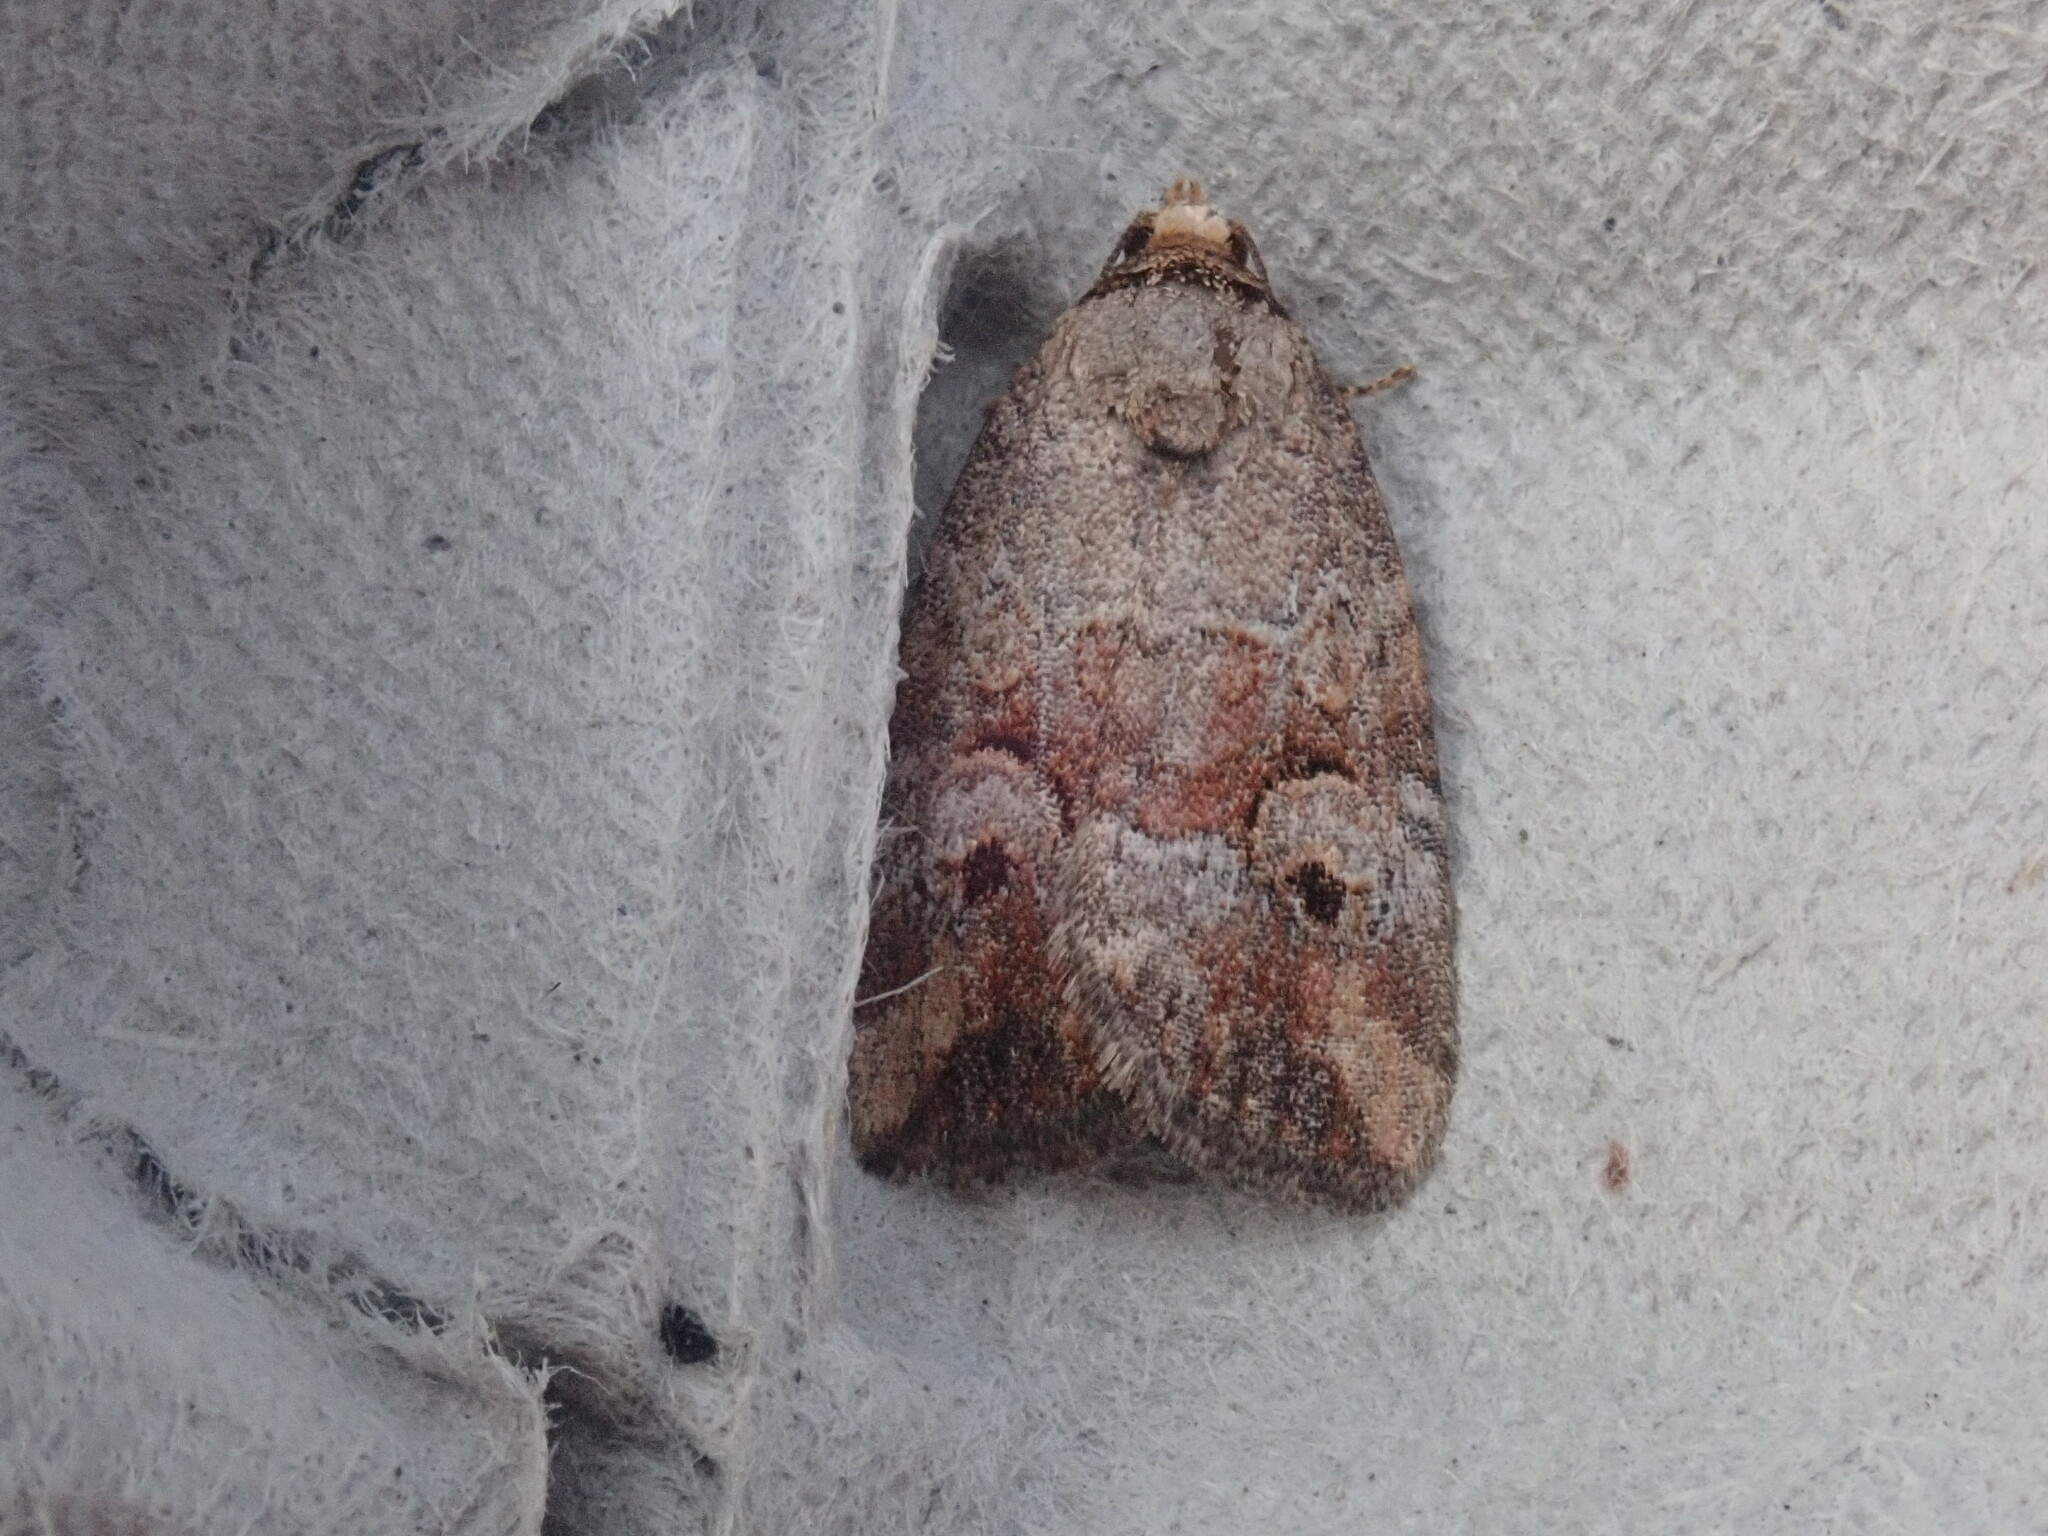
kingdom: Animalia
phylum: Arthropoda
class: Insecta
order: Lepidoptera
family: Noctuidae
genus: Elaphria
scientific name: Elaphria alapallida
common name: Pale-winged midget
